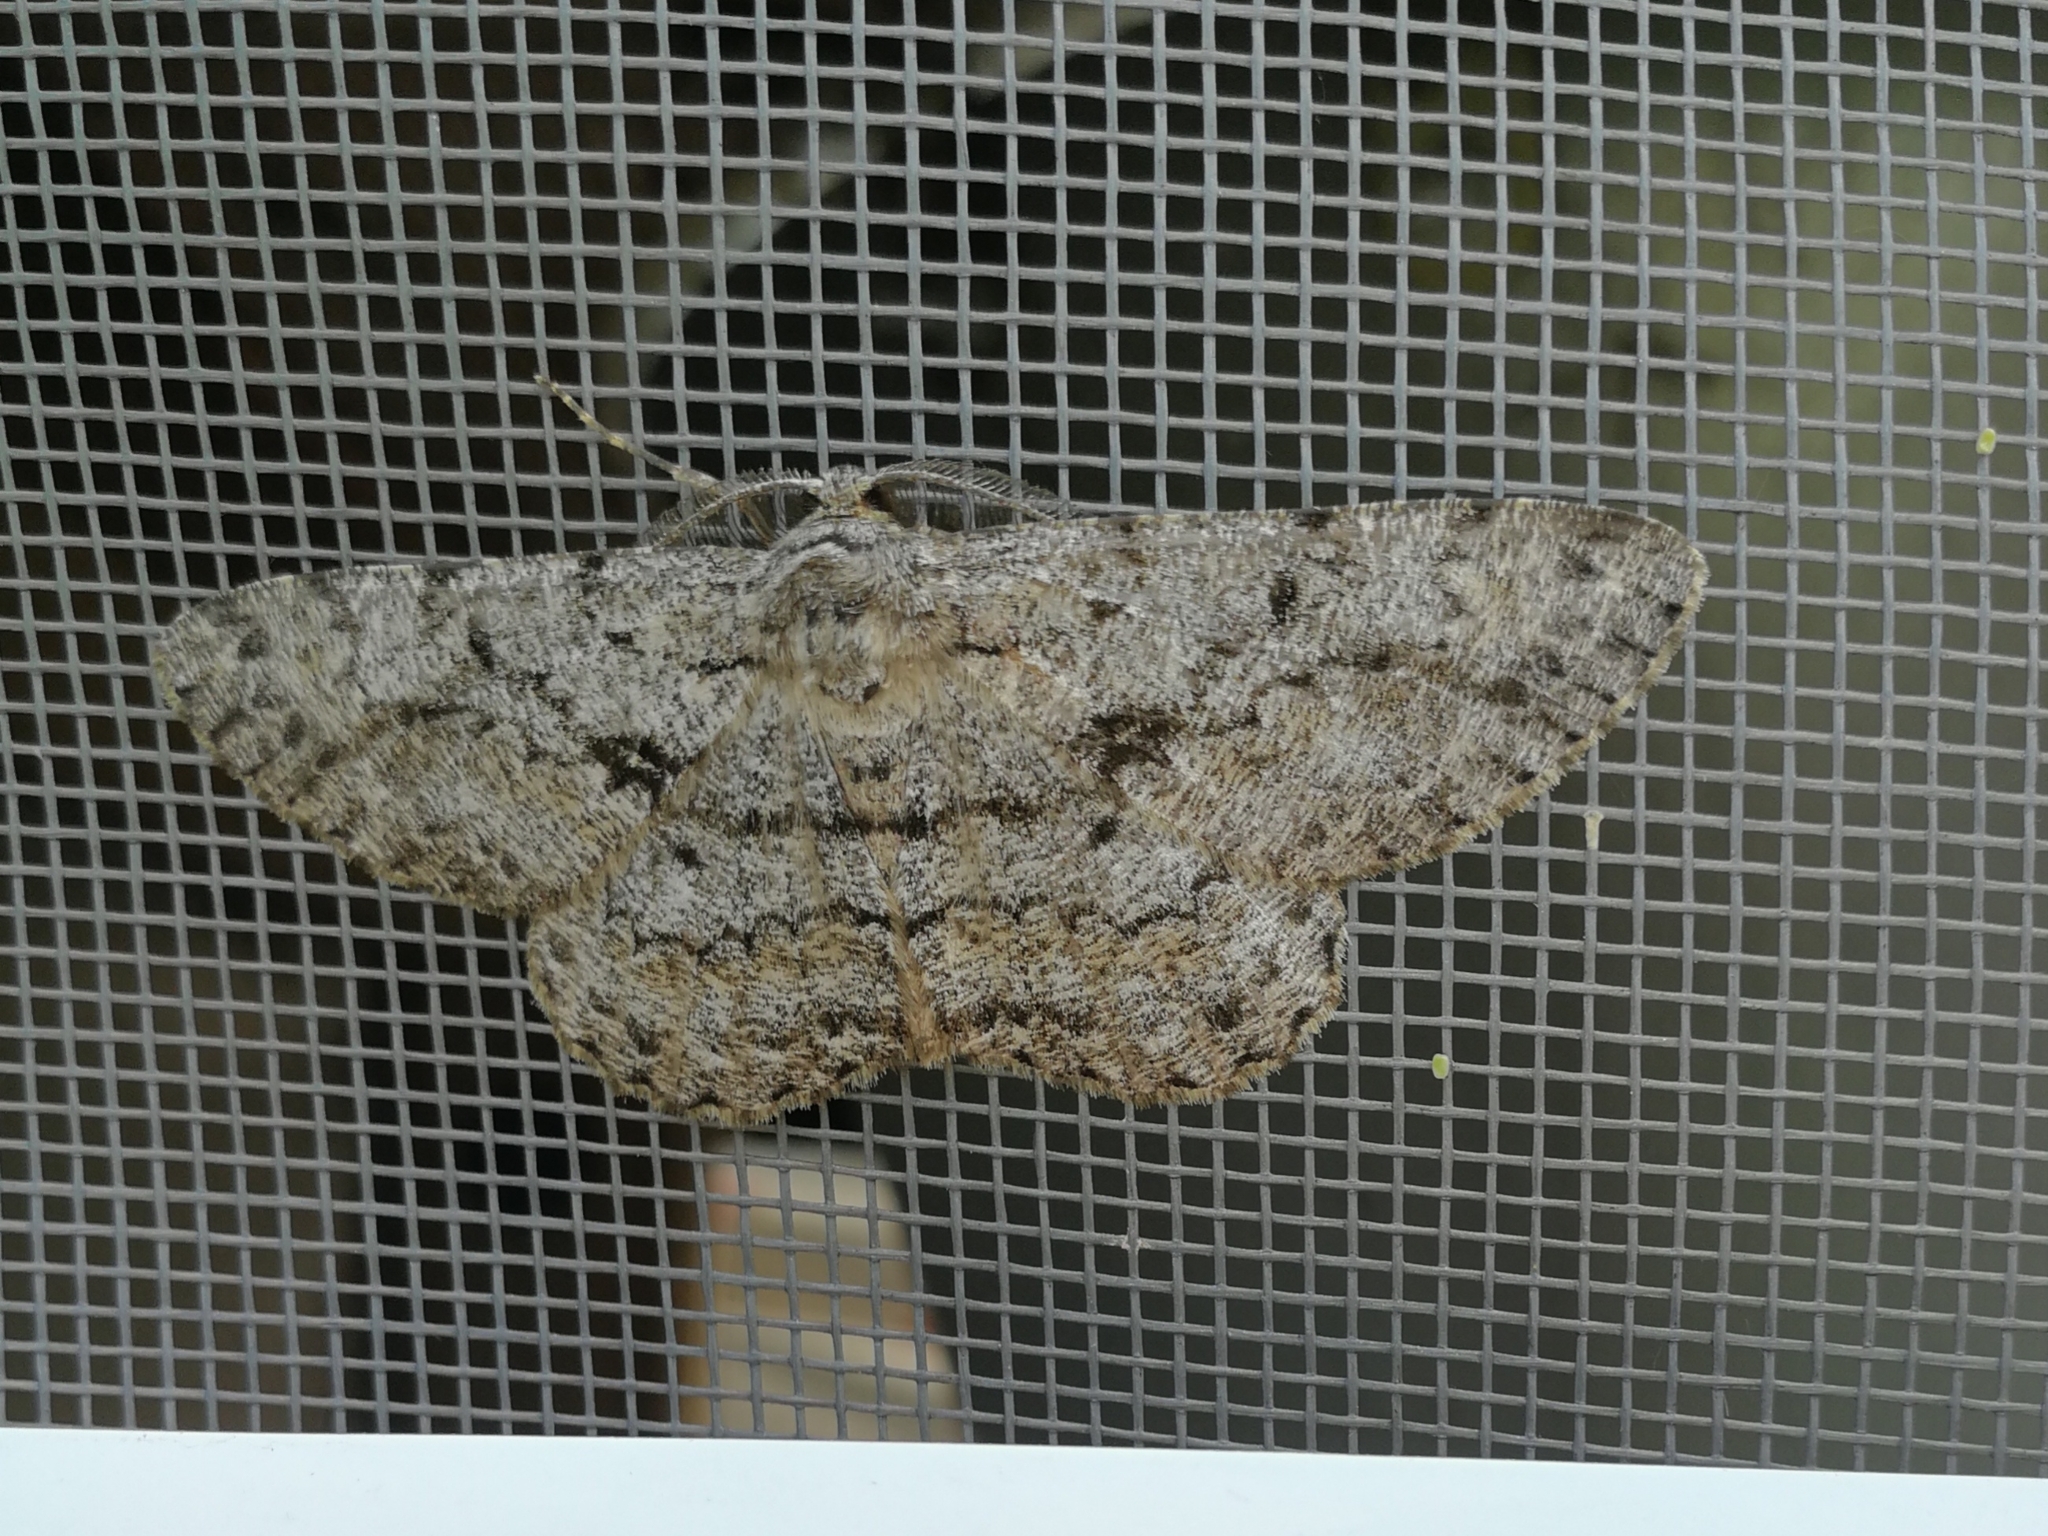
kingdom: Animalia
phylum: Arthropoda
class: Insecta
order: Lepidoptera
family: Geometridae
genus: Hypomecis
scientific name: Hypomecis roboraria
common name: Great oak beauty
